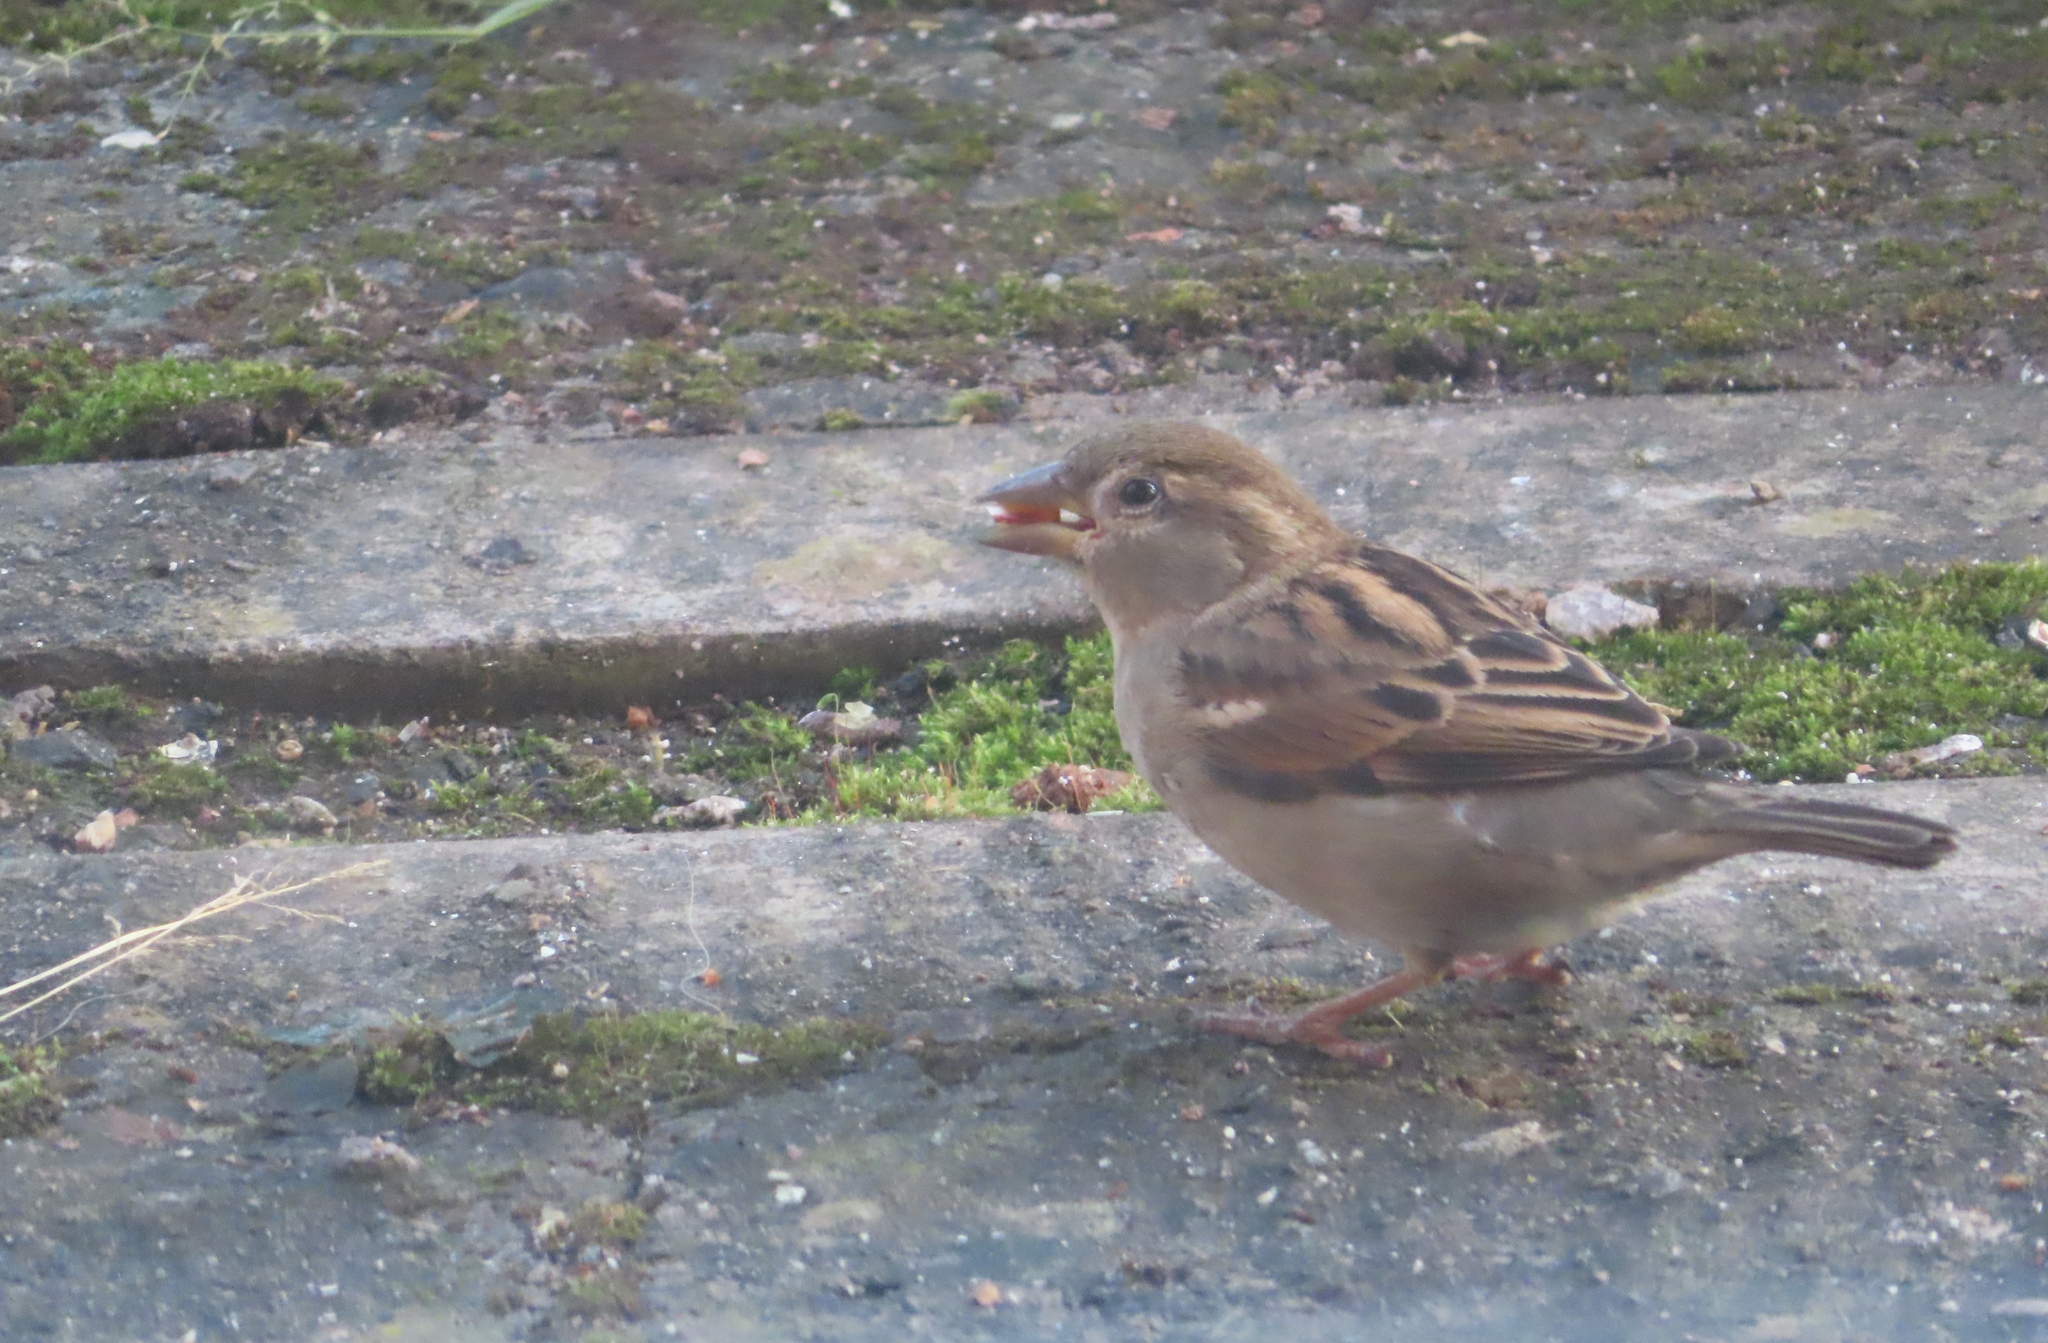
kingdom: Animalia
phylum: Chordata
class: Aves
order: Passeriformes
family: Passeridae
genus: Passer
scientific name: Passer domesticus
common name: House sparrow
